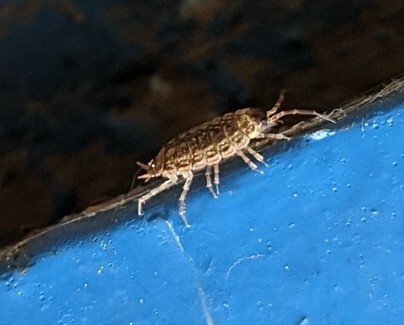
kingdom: Animalia
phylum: Arthropoda
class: Malacostraca
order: Isopoda
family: Philosciidae
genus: Philoscia
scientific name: Philoscia muscorum
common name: Common striped woodlouse
